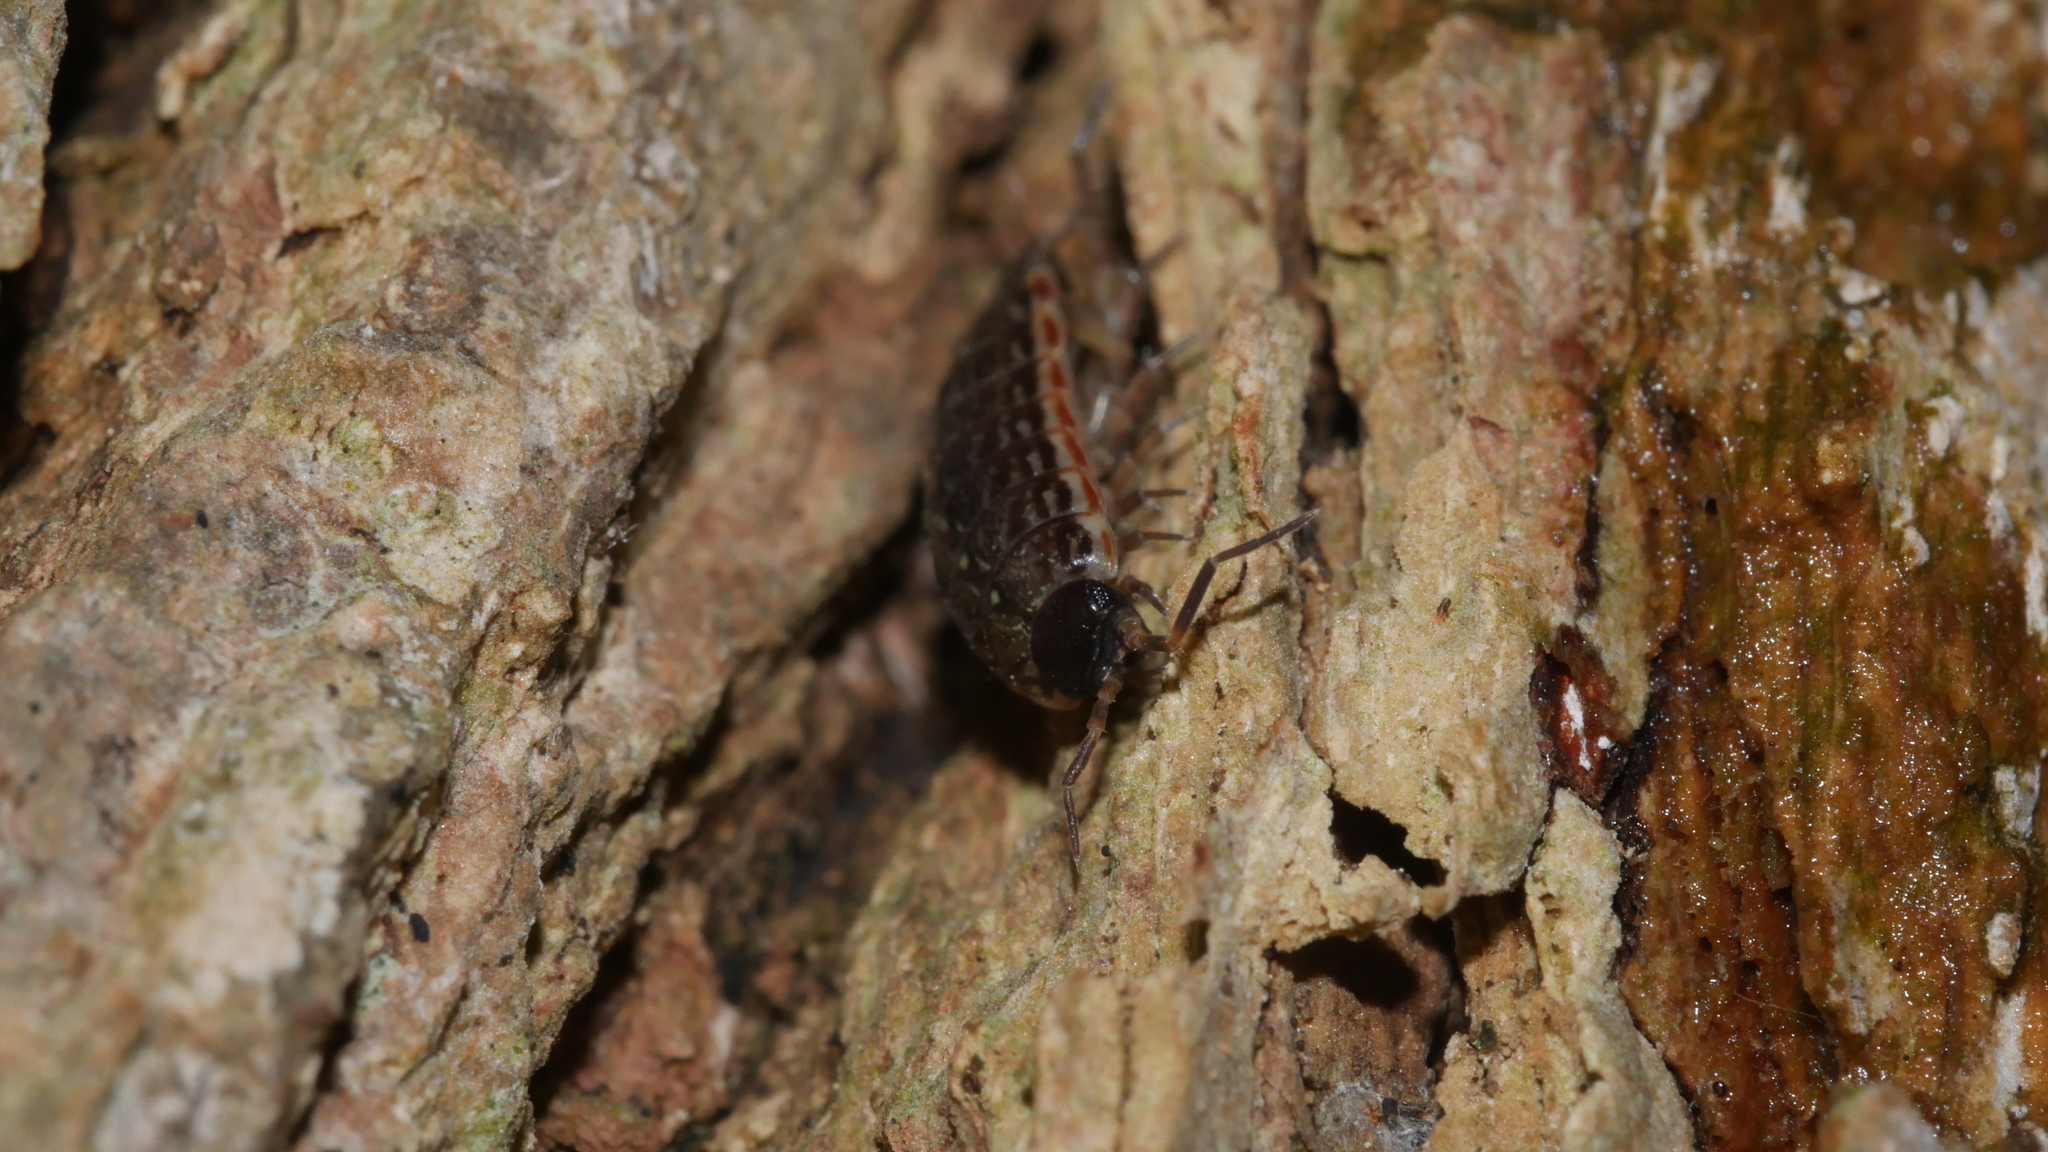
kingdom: Animalia
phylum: Arthropoda
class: Malacostraca
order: Isopoda
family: Philosciidae
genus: Philoscia
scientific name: Philoscia muscorum
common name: Common striped woodlouse
